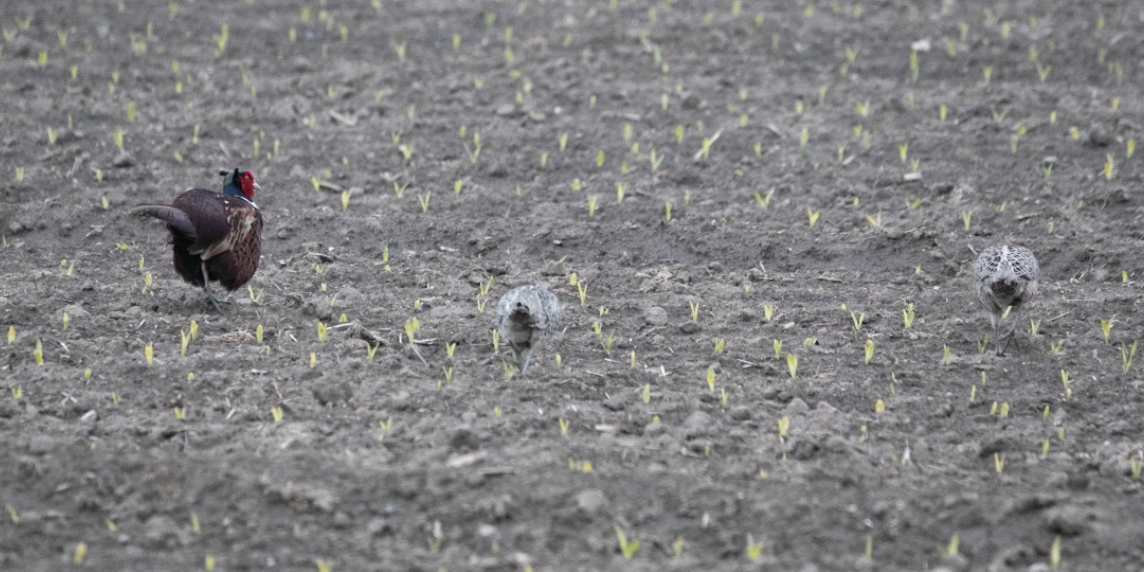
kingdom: Animalia
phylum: Chordata
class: Aves
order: Galliformes
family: Phasianidae
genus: Phasianus
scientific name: Phasianus colchicus
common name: Common pheasant
